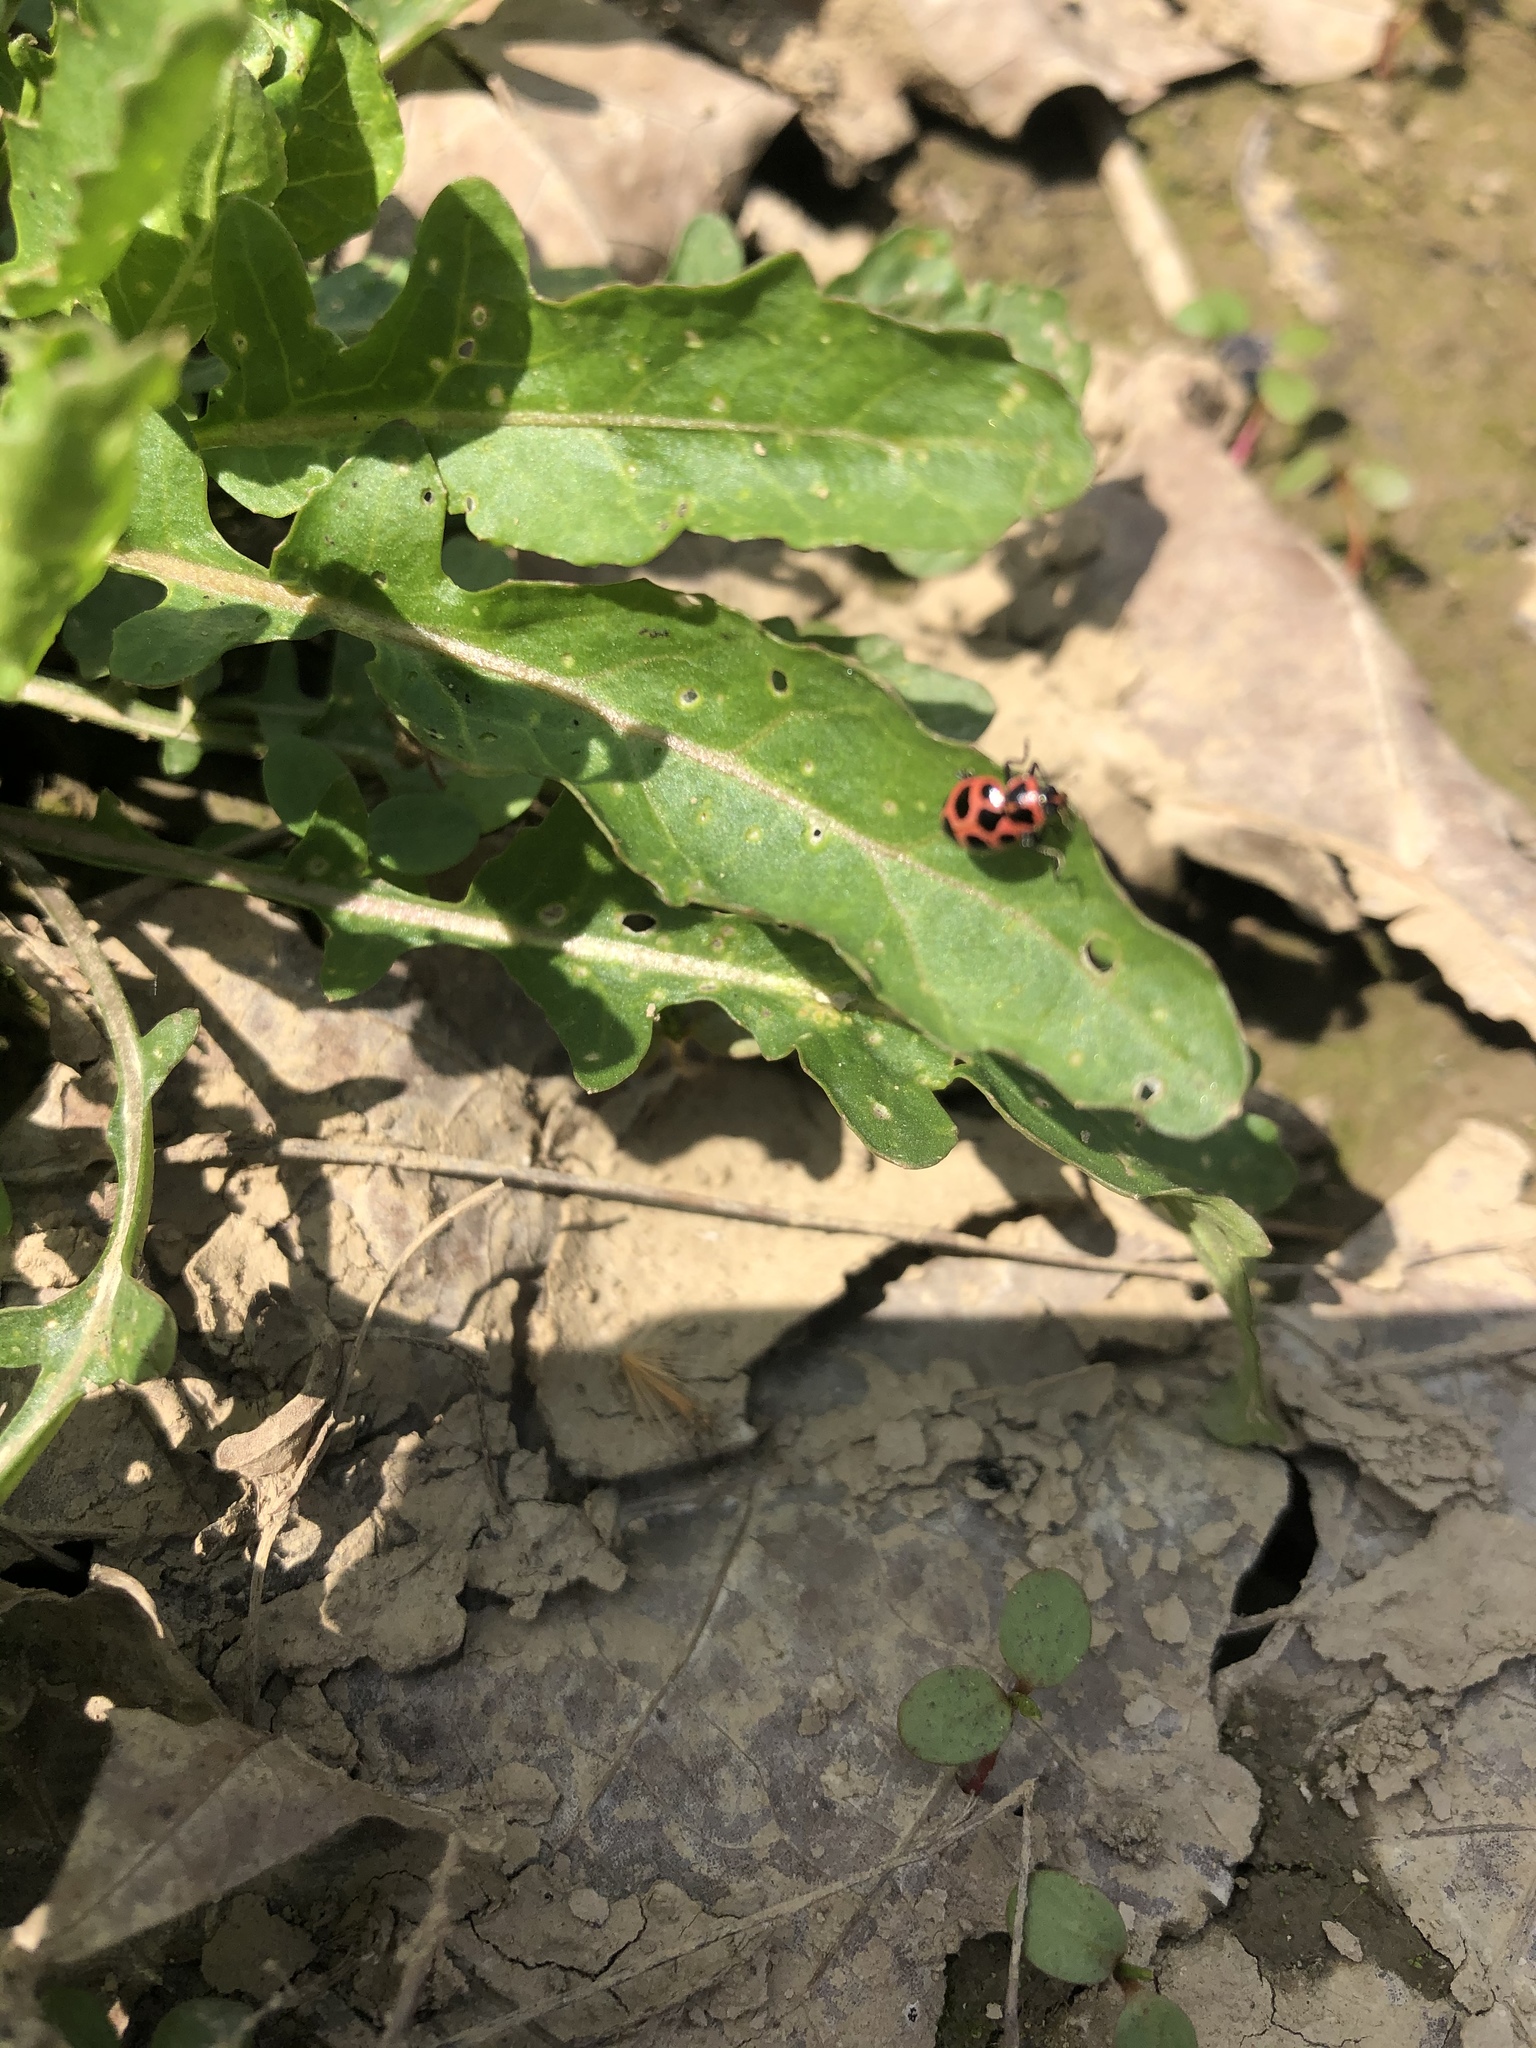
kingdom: Animalia
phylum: Arthropoda
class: Insecta
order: Coleoptera
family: Coccinellidae
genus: Coleomegilla
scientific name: Coleomegilla maculata
